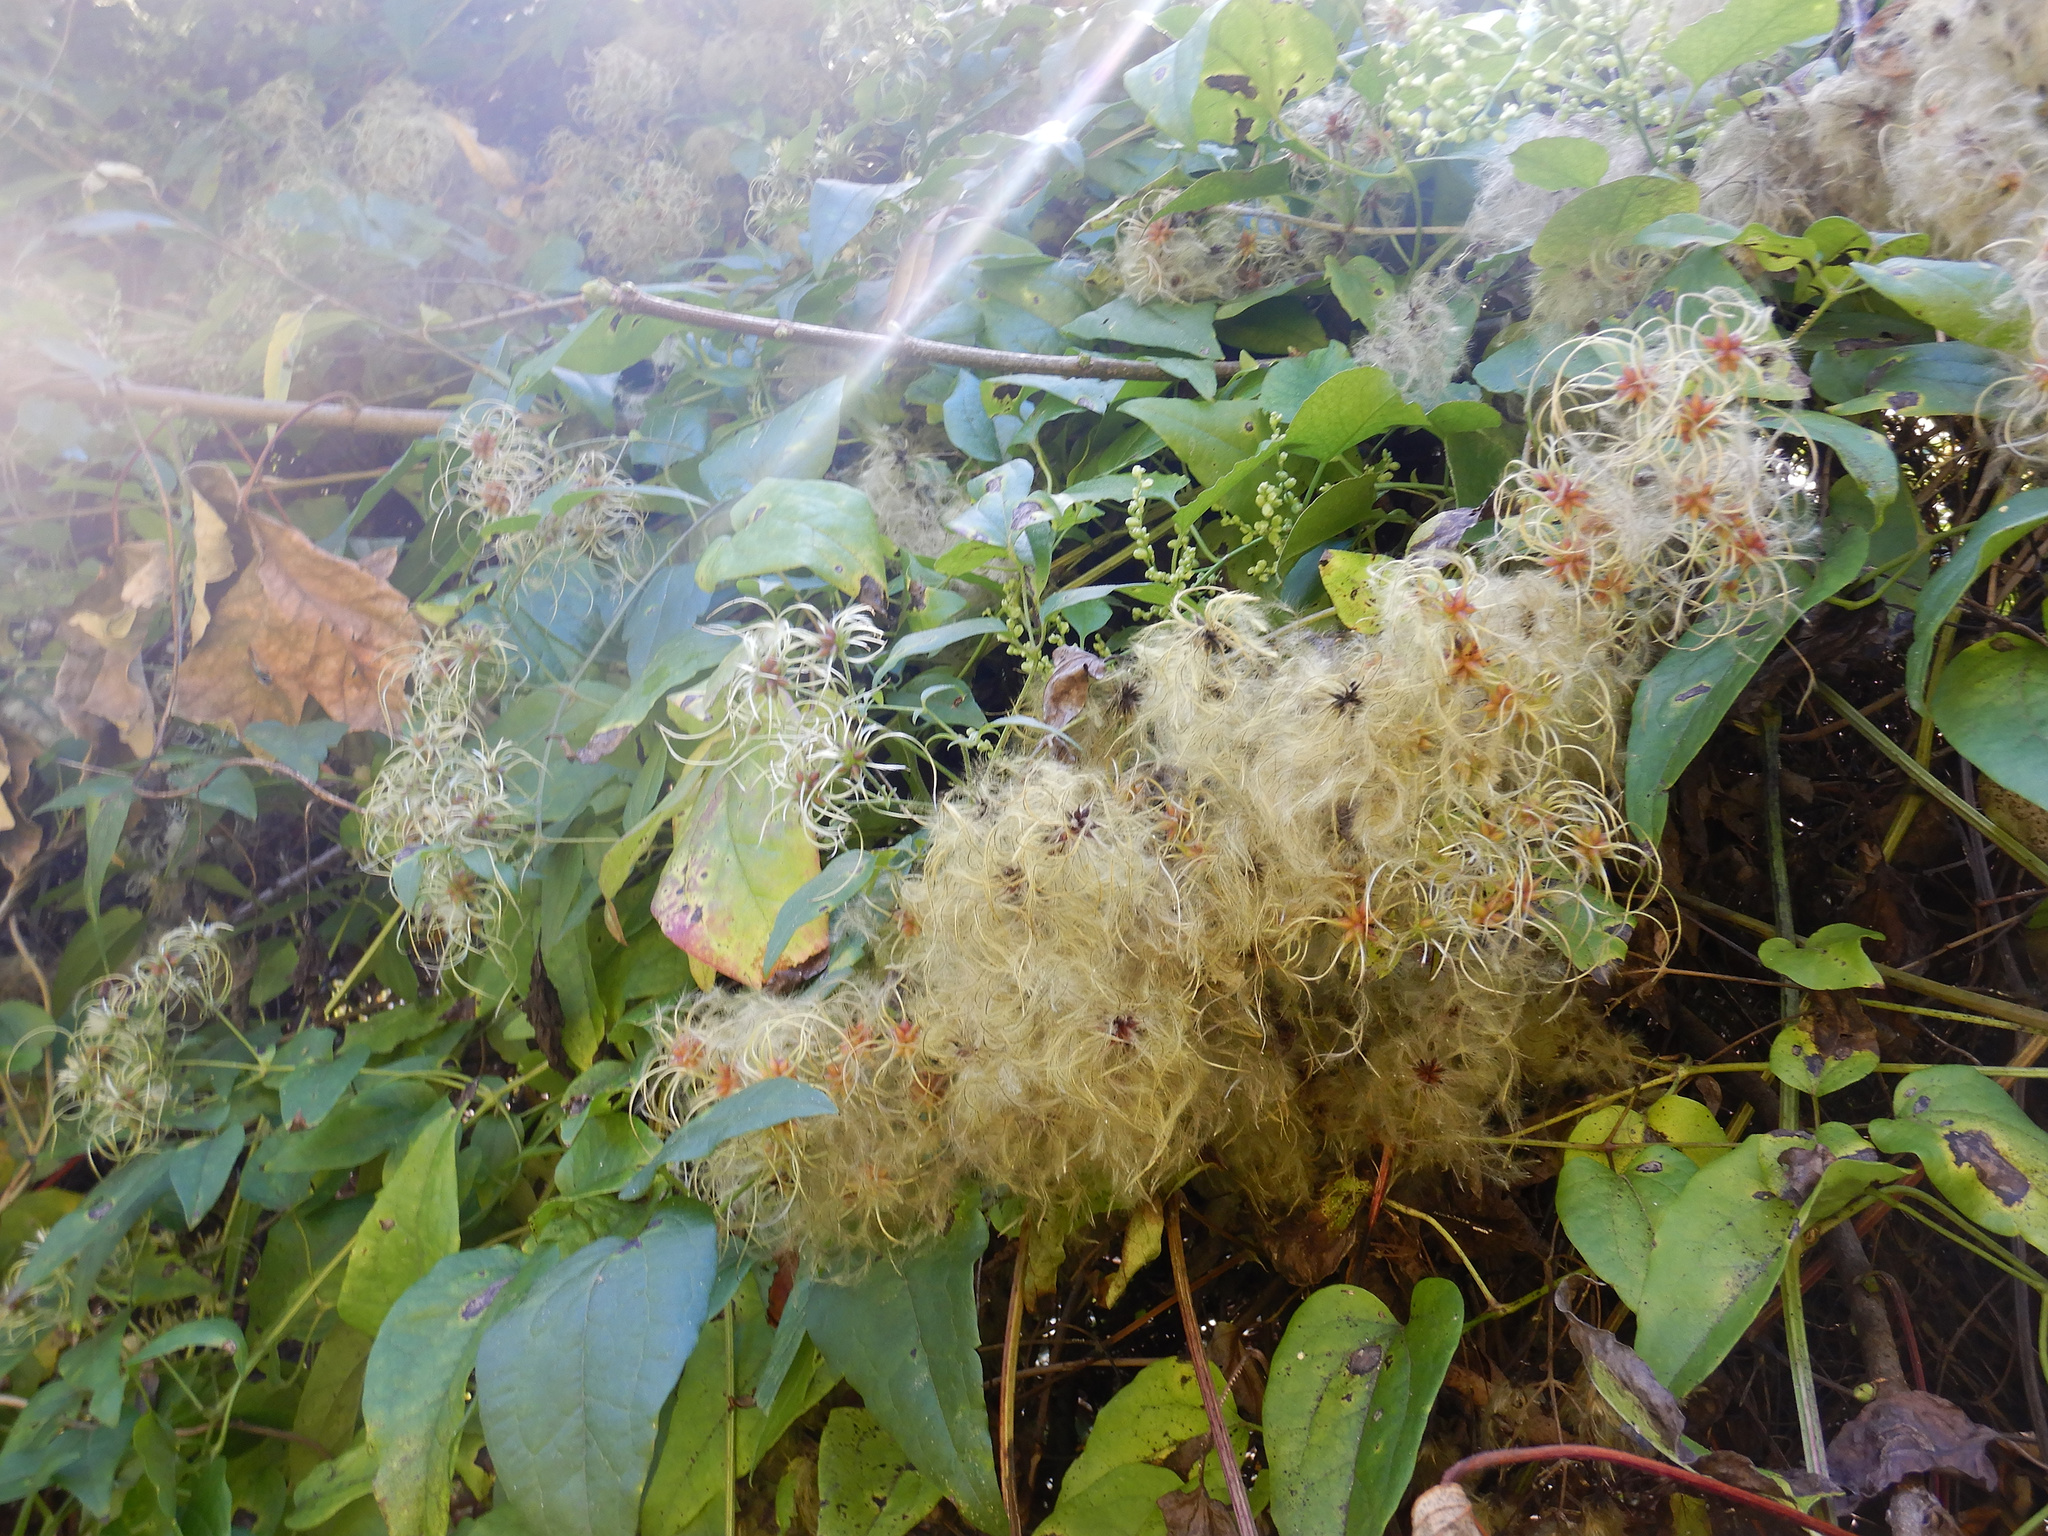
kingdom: Plantae
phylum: Tracheophyta
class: Magnoliopsida
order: Ranunculales
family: Ranunculaceae
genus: Clematis
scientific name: Clematis vitalba
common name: Evergreen clematis
